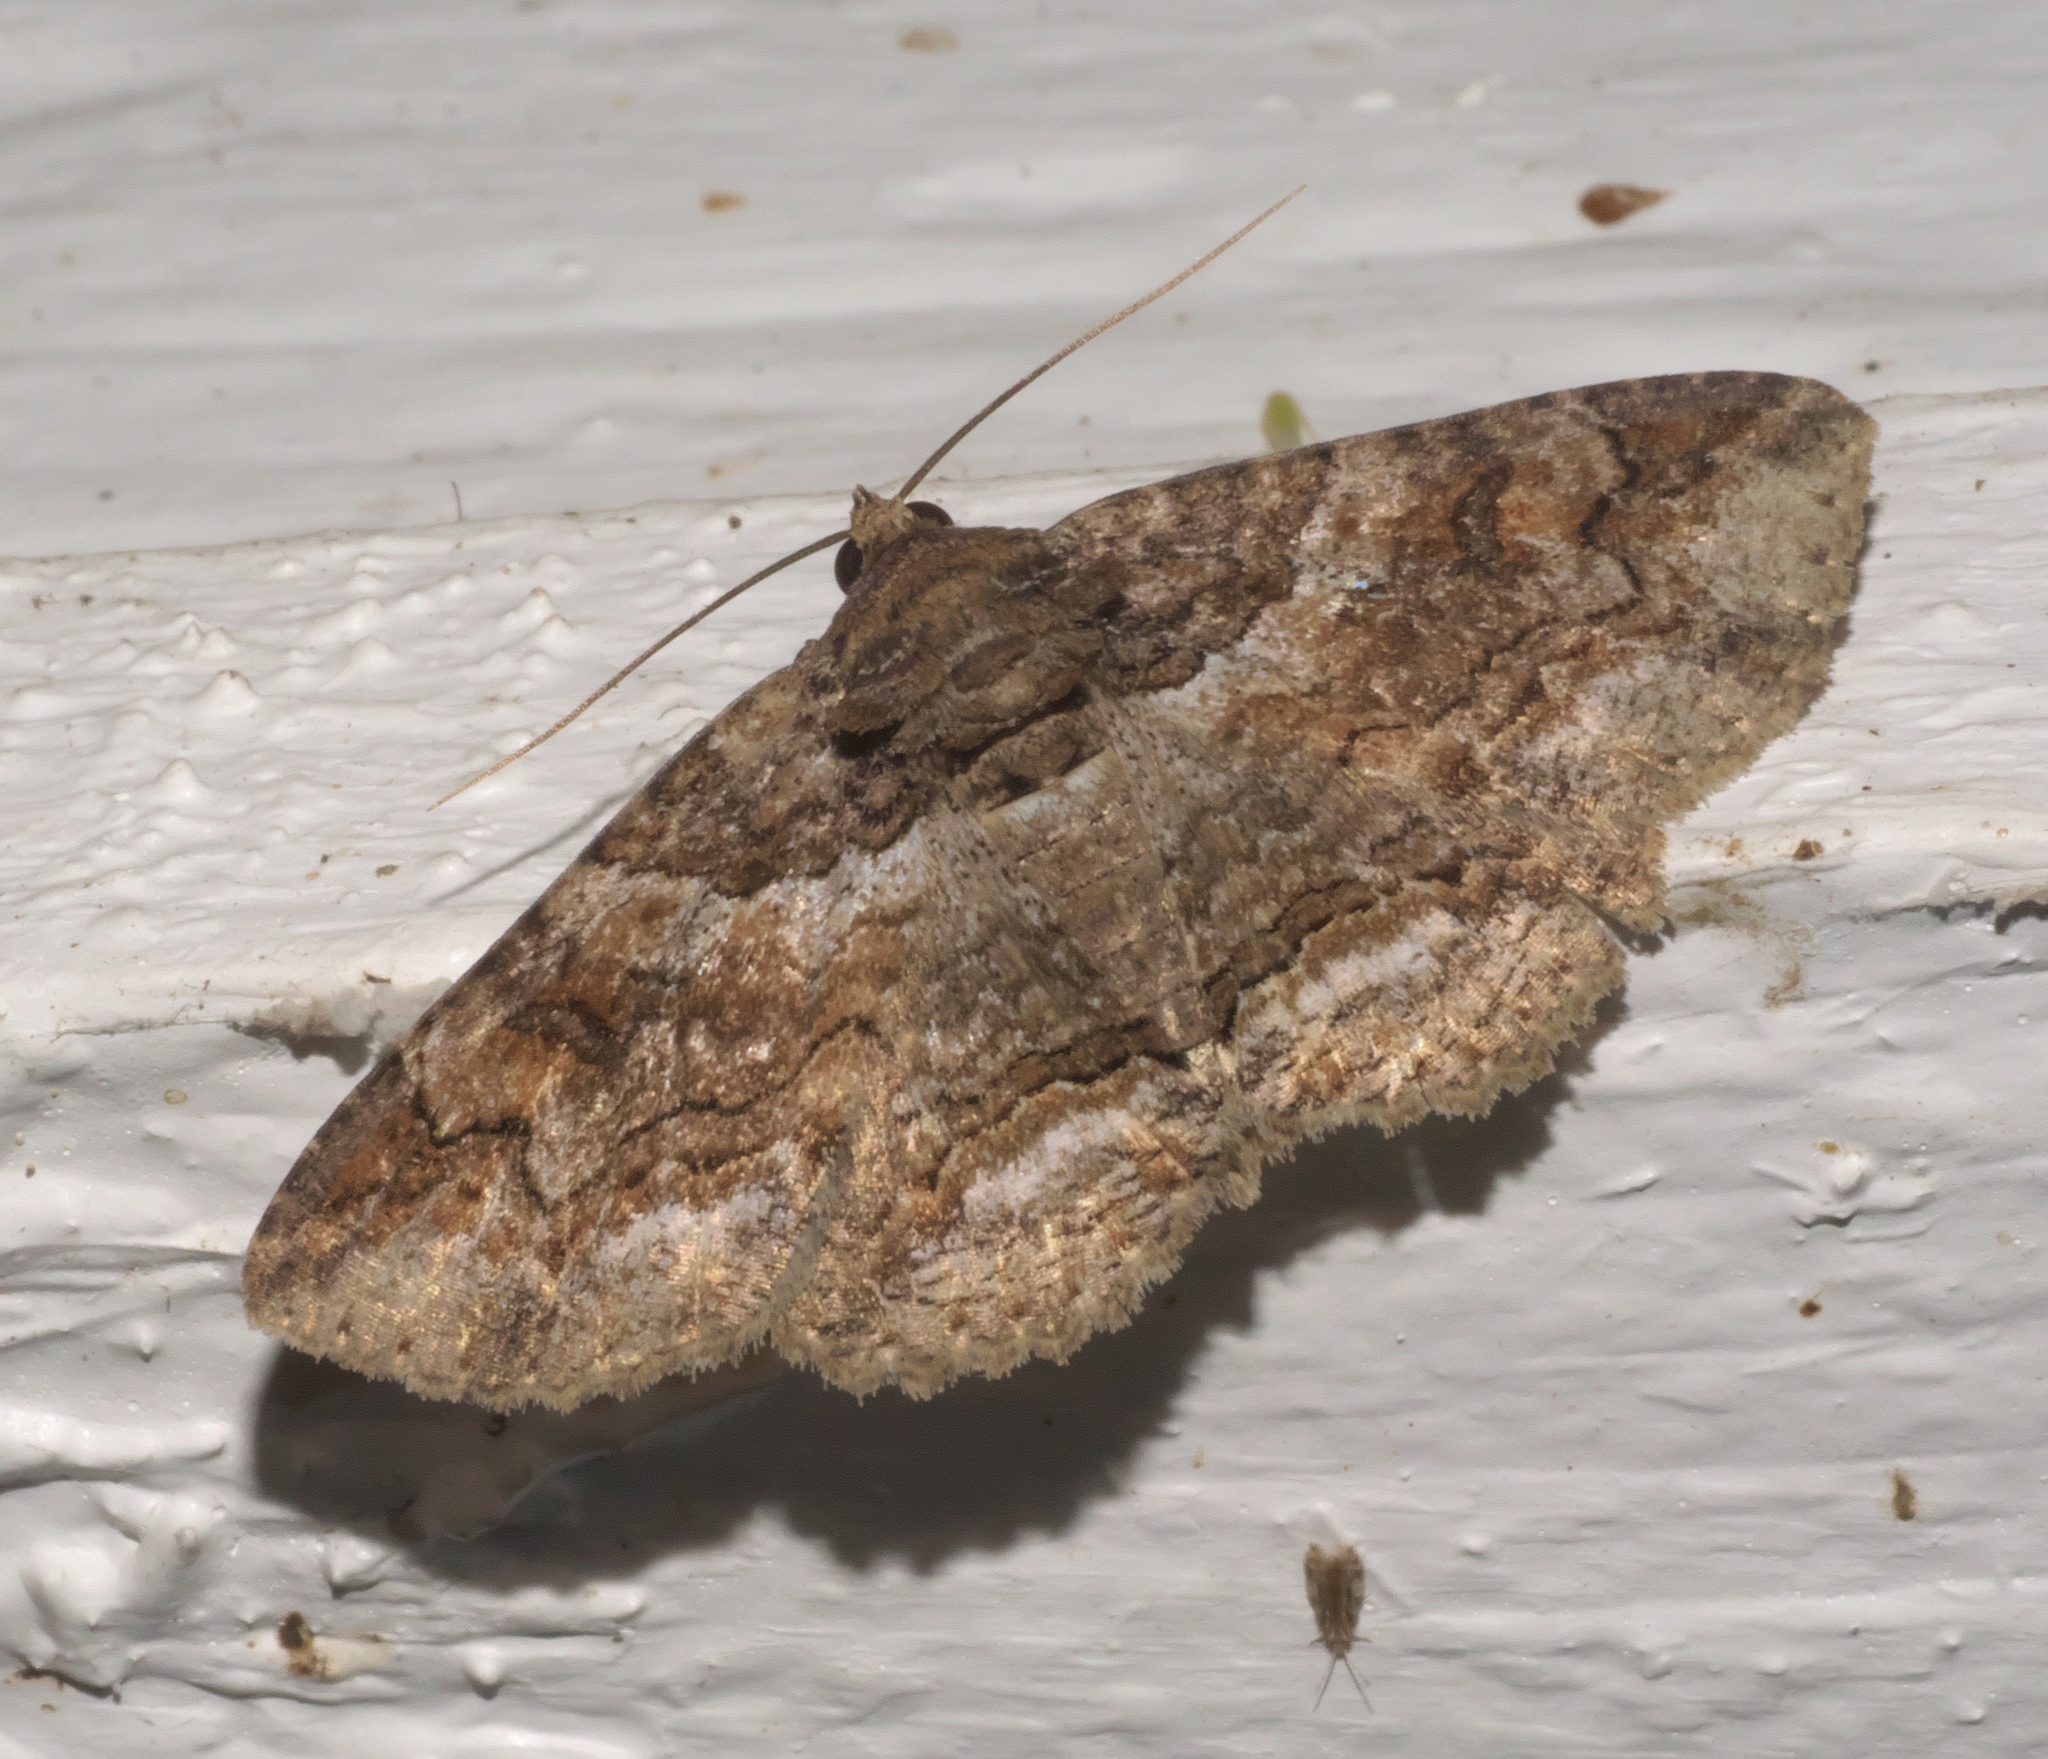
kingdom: Animalia
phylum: Arthropoda
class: Insecta
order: Lepidoptera
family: Erebidae
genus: Zale
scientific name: Zale galbanata
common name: Maple zale
